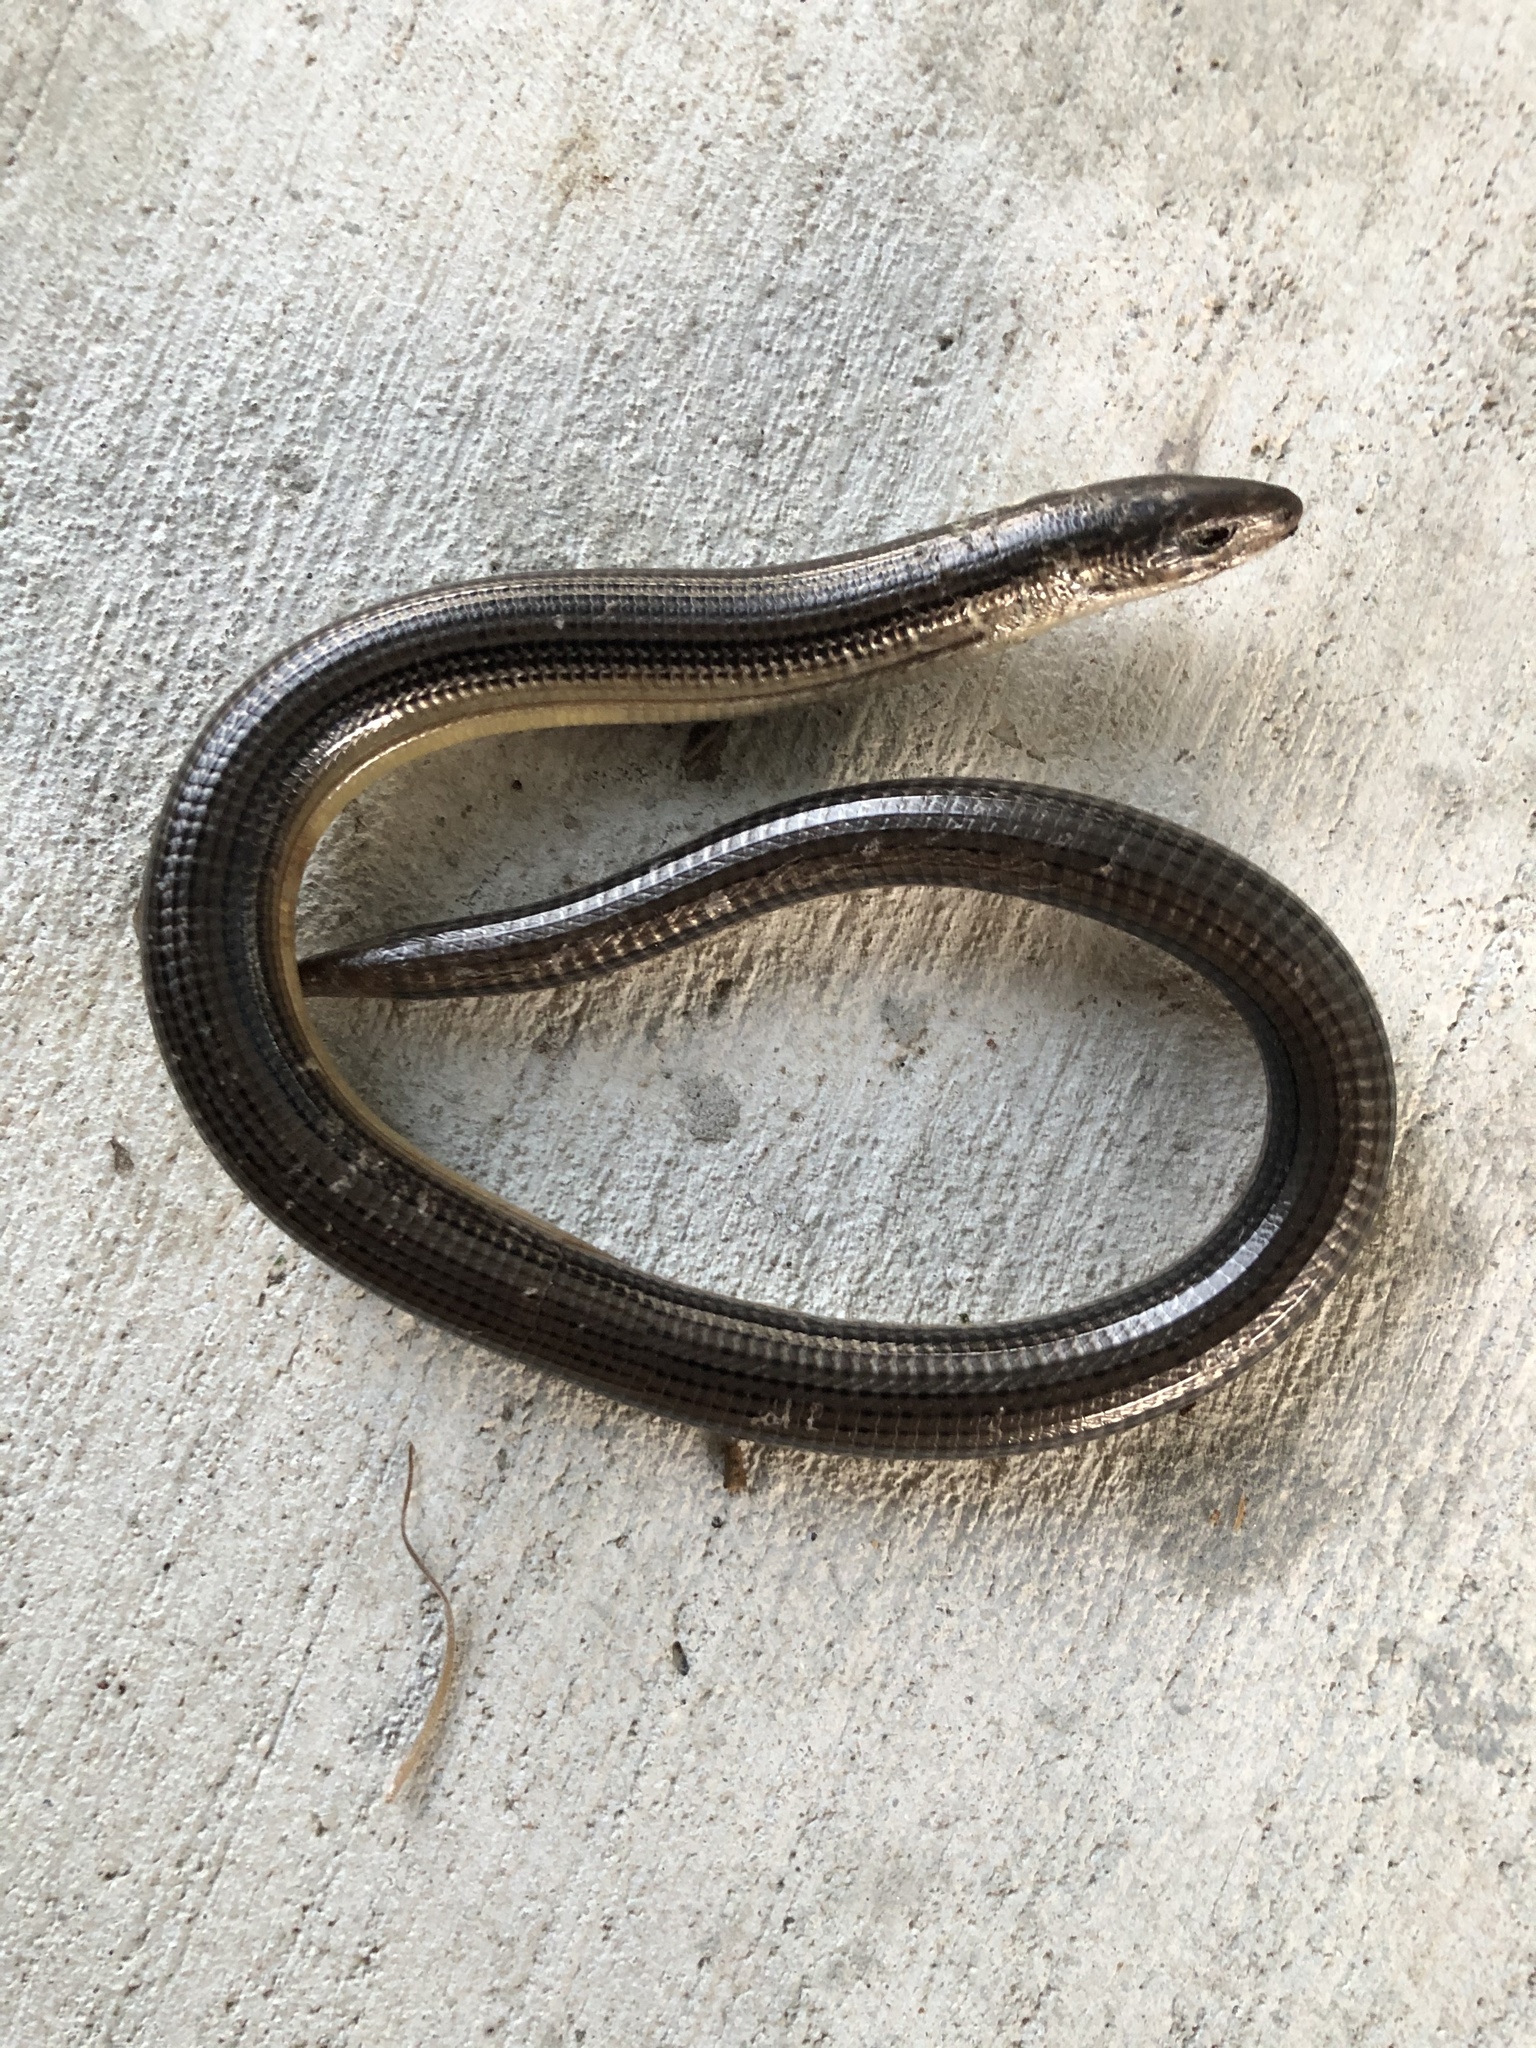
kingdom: Animalia
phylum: Chordata
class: Squamata
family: Anguidae
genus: Ophisaurus
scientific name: Ophisaurus ventralis
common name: Eastern glass lizard
